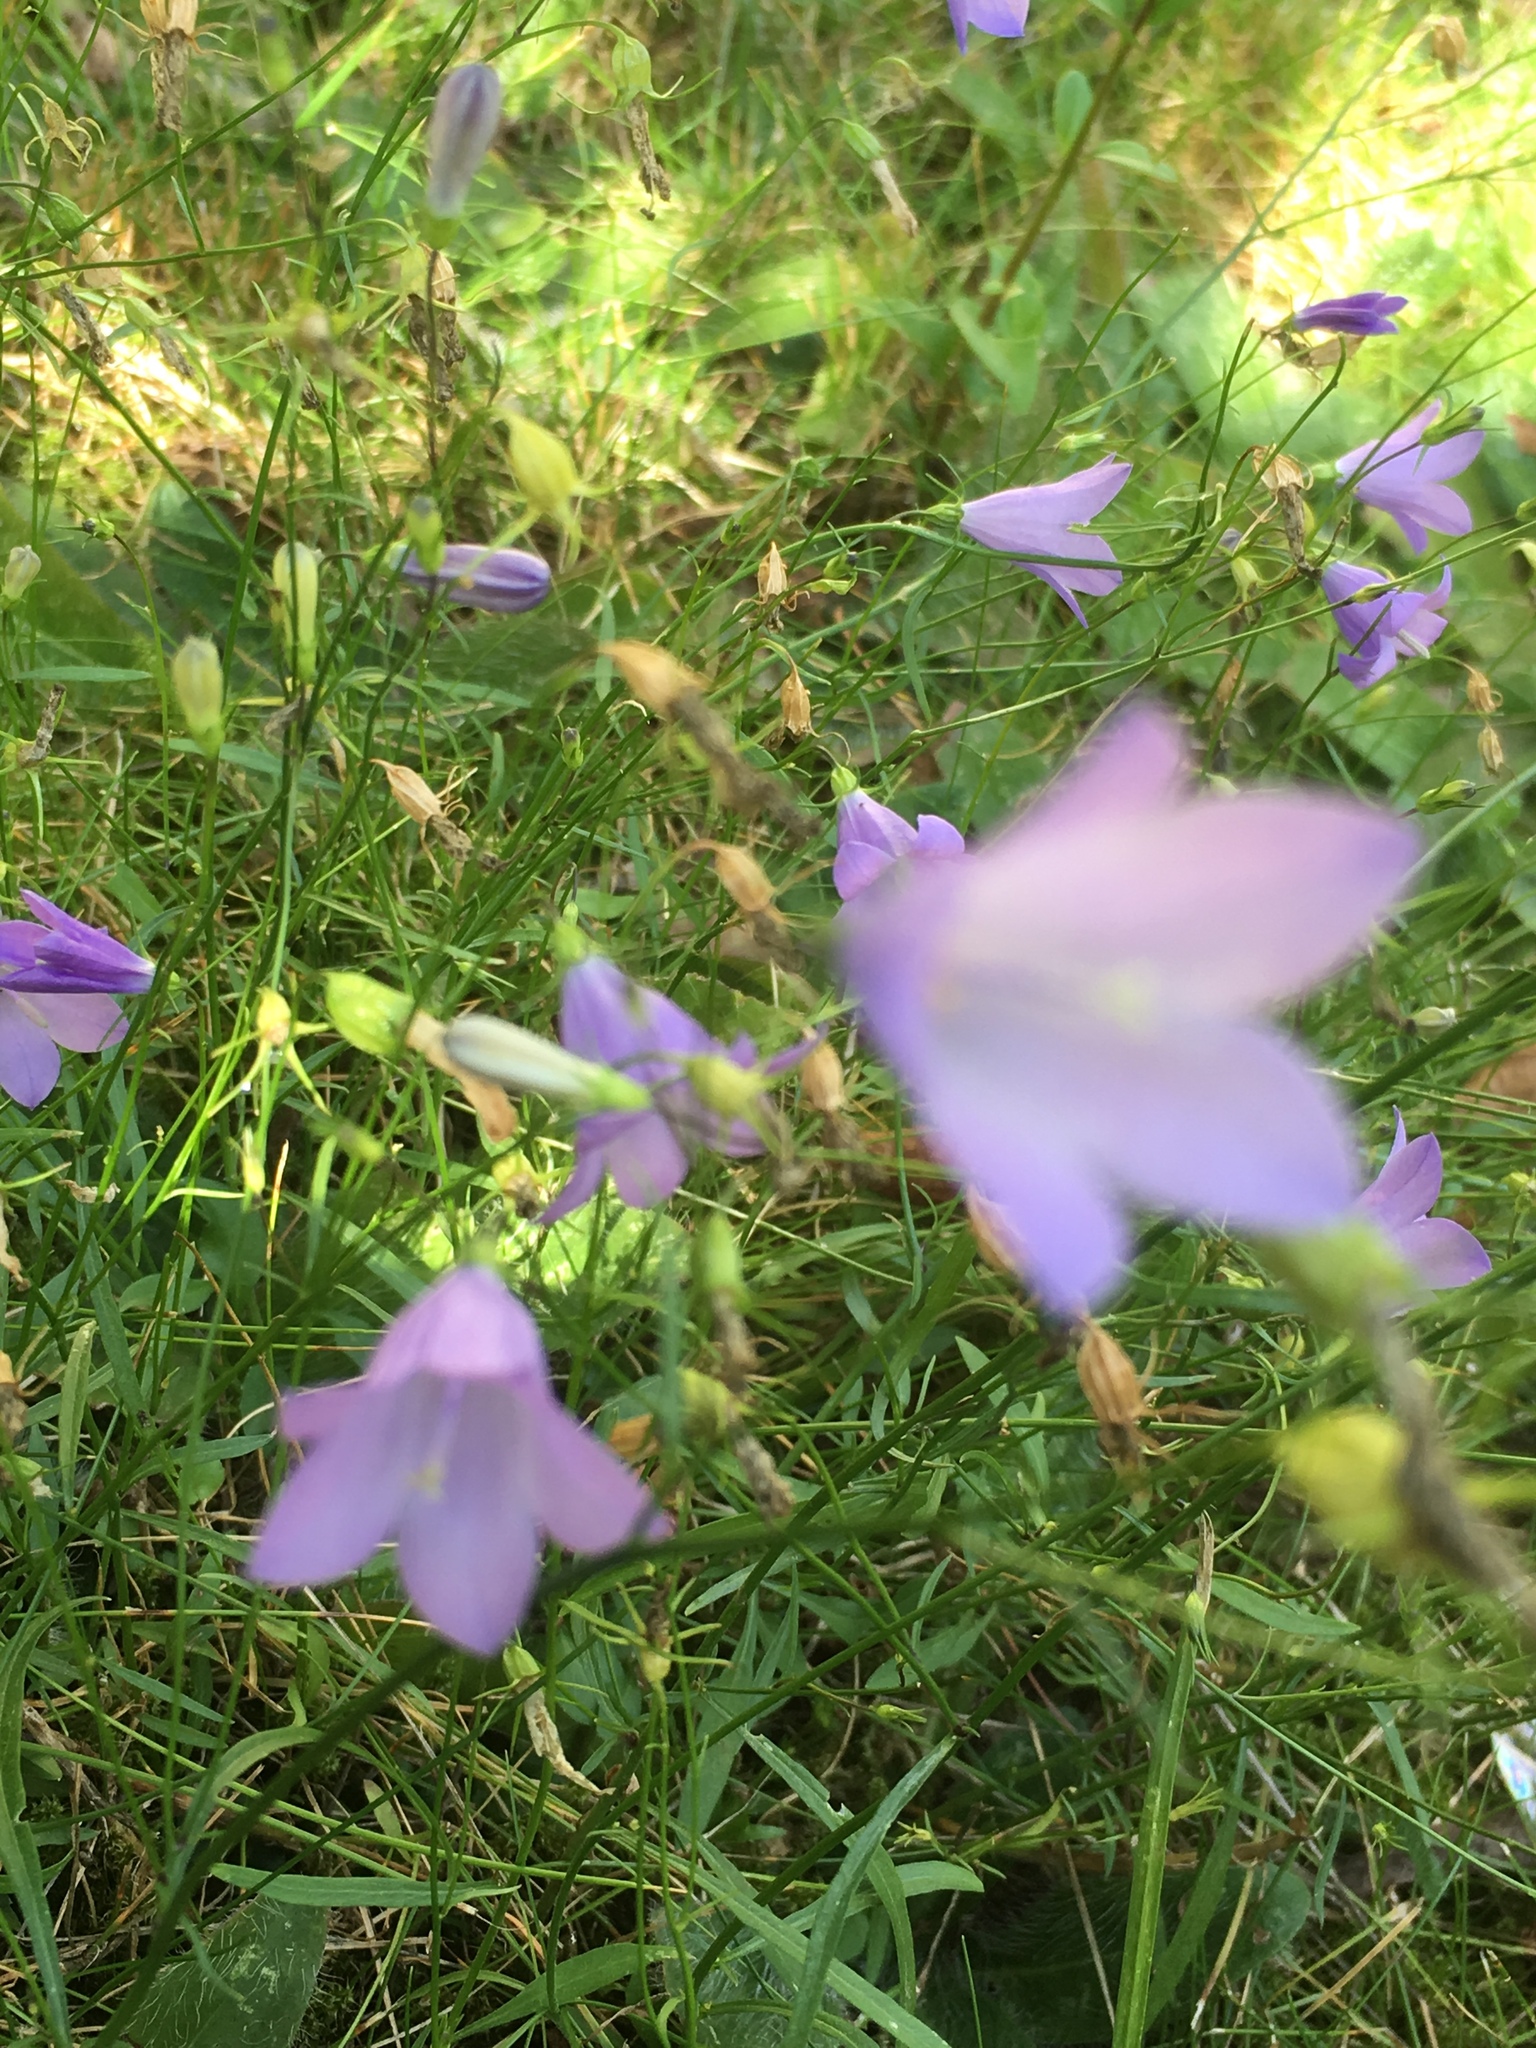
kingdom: Plantae
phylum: Tracheophyta
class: Magnoliopsida
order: Asterales
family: Campanulaceae
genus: Campanula
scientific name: Campanula rotundifolia
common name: Harebell
